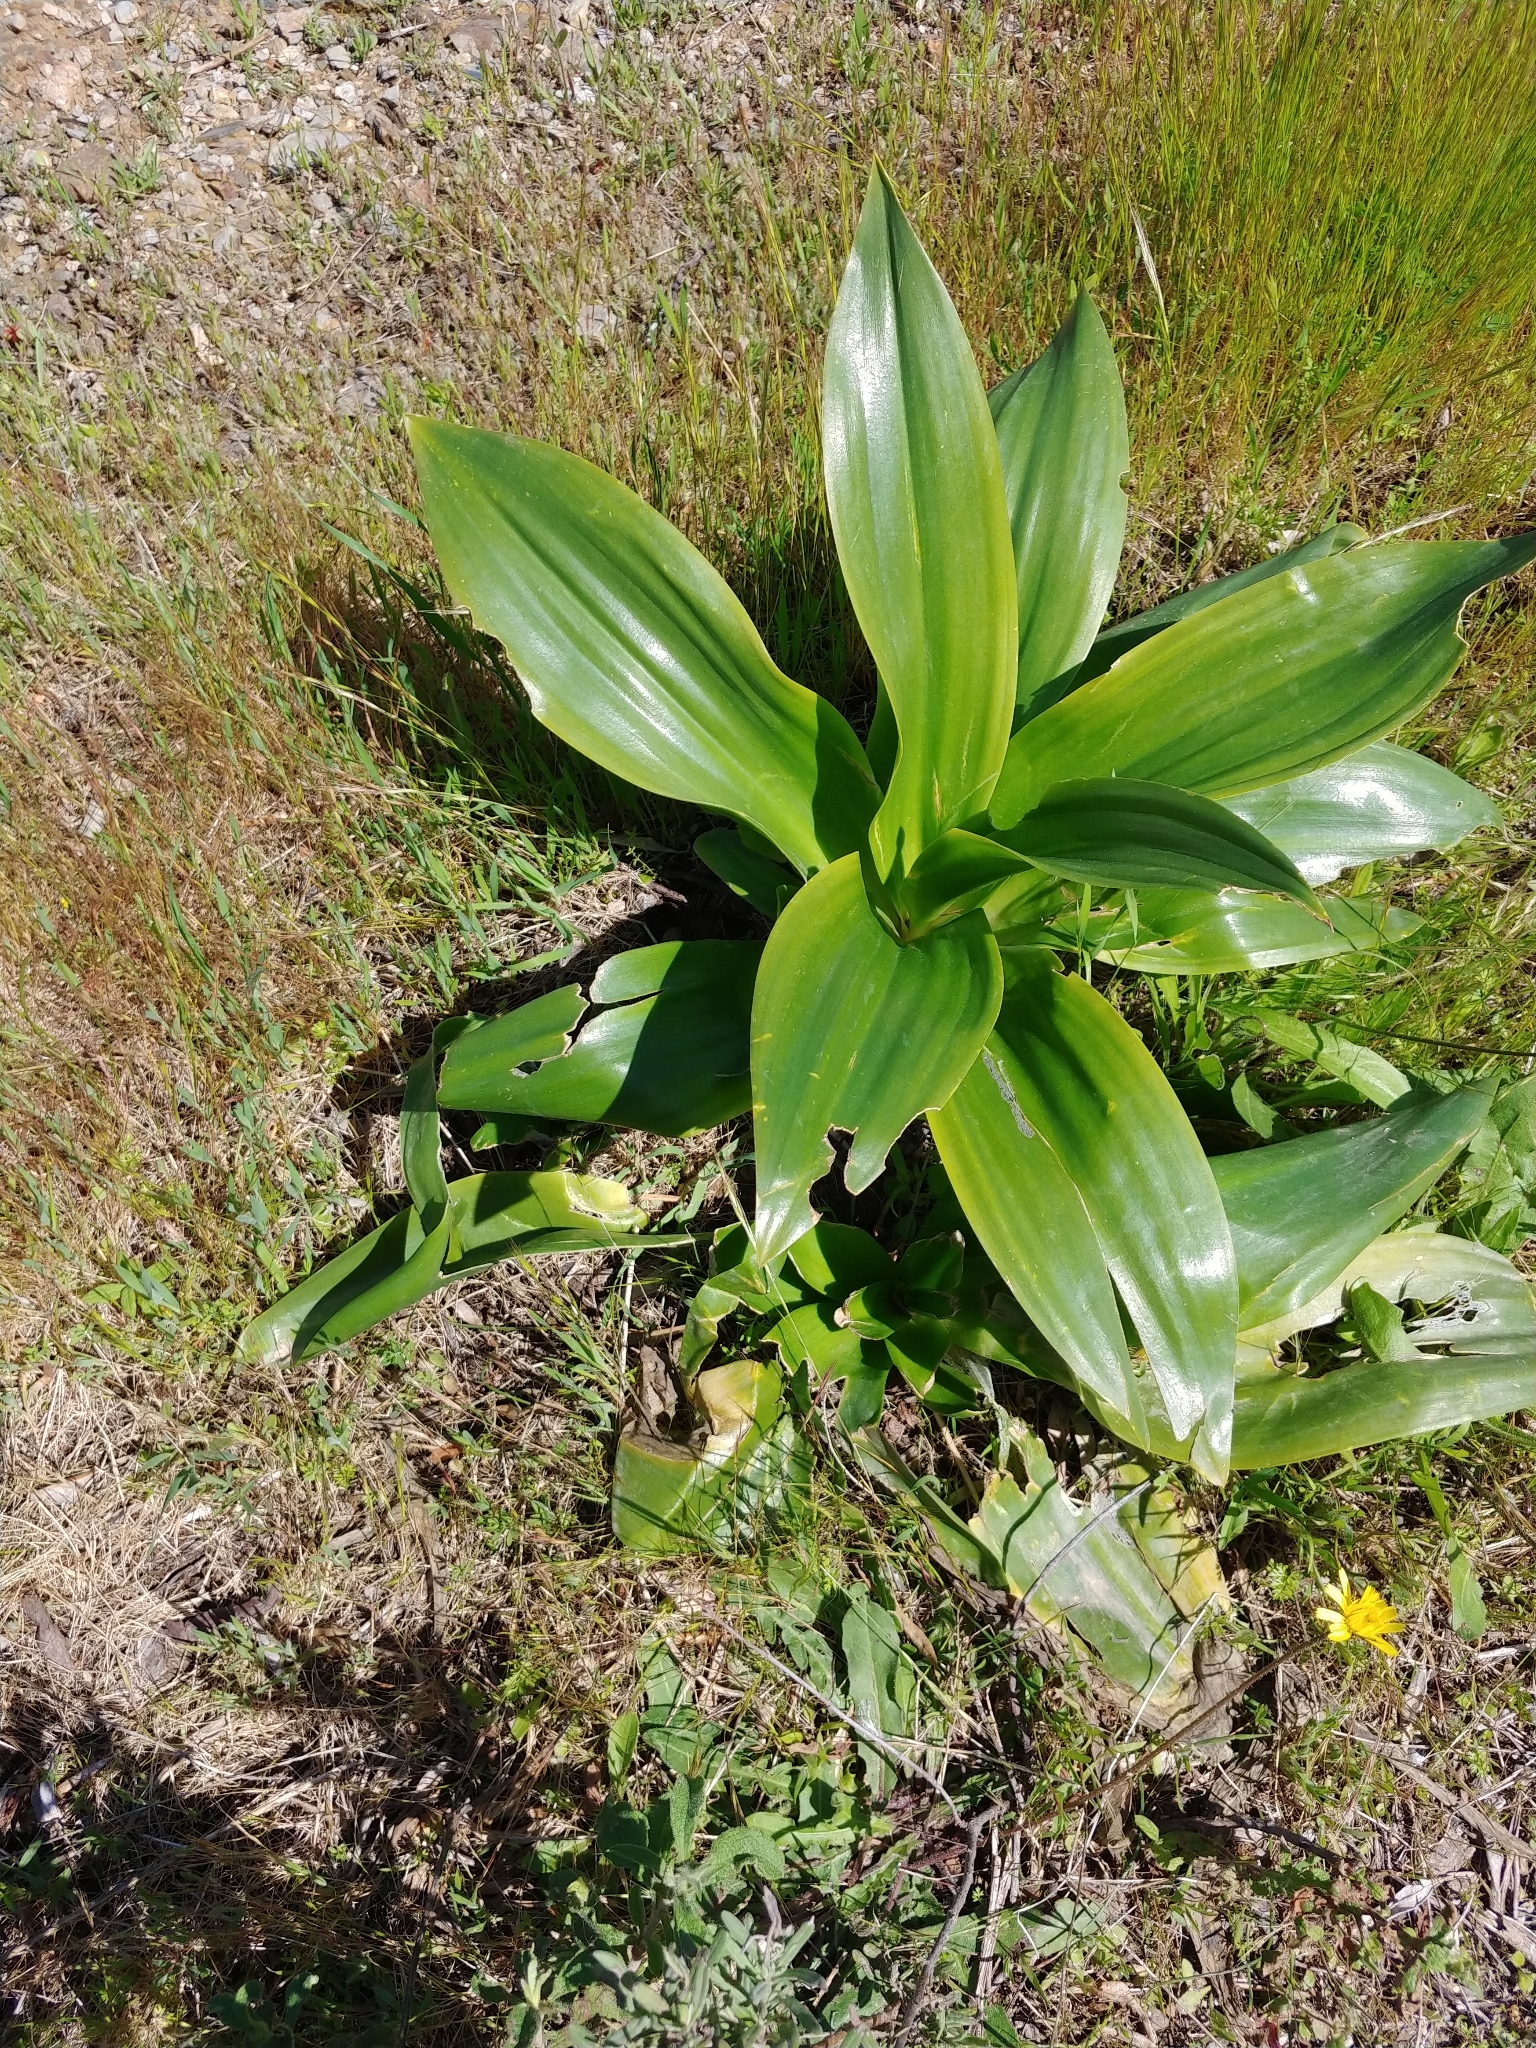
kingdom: Plantae
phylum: Tracheophyta
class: Liliopsida
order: Asparagales
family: Asparagaceae
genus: Drimia
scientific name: Drimia numidica
